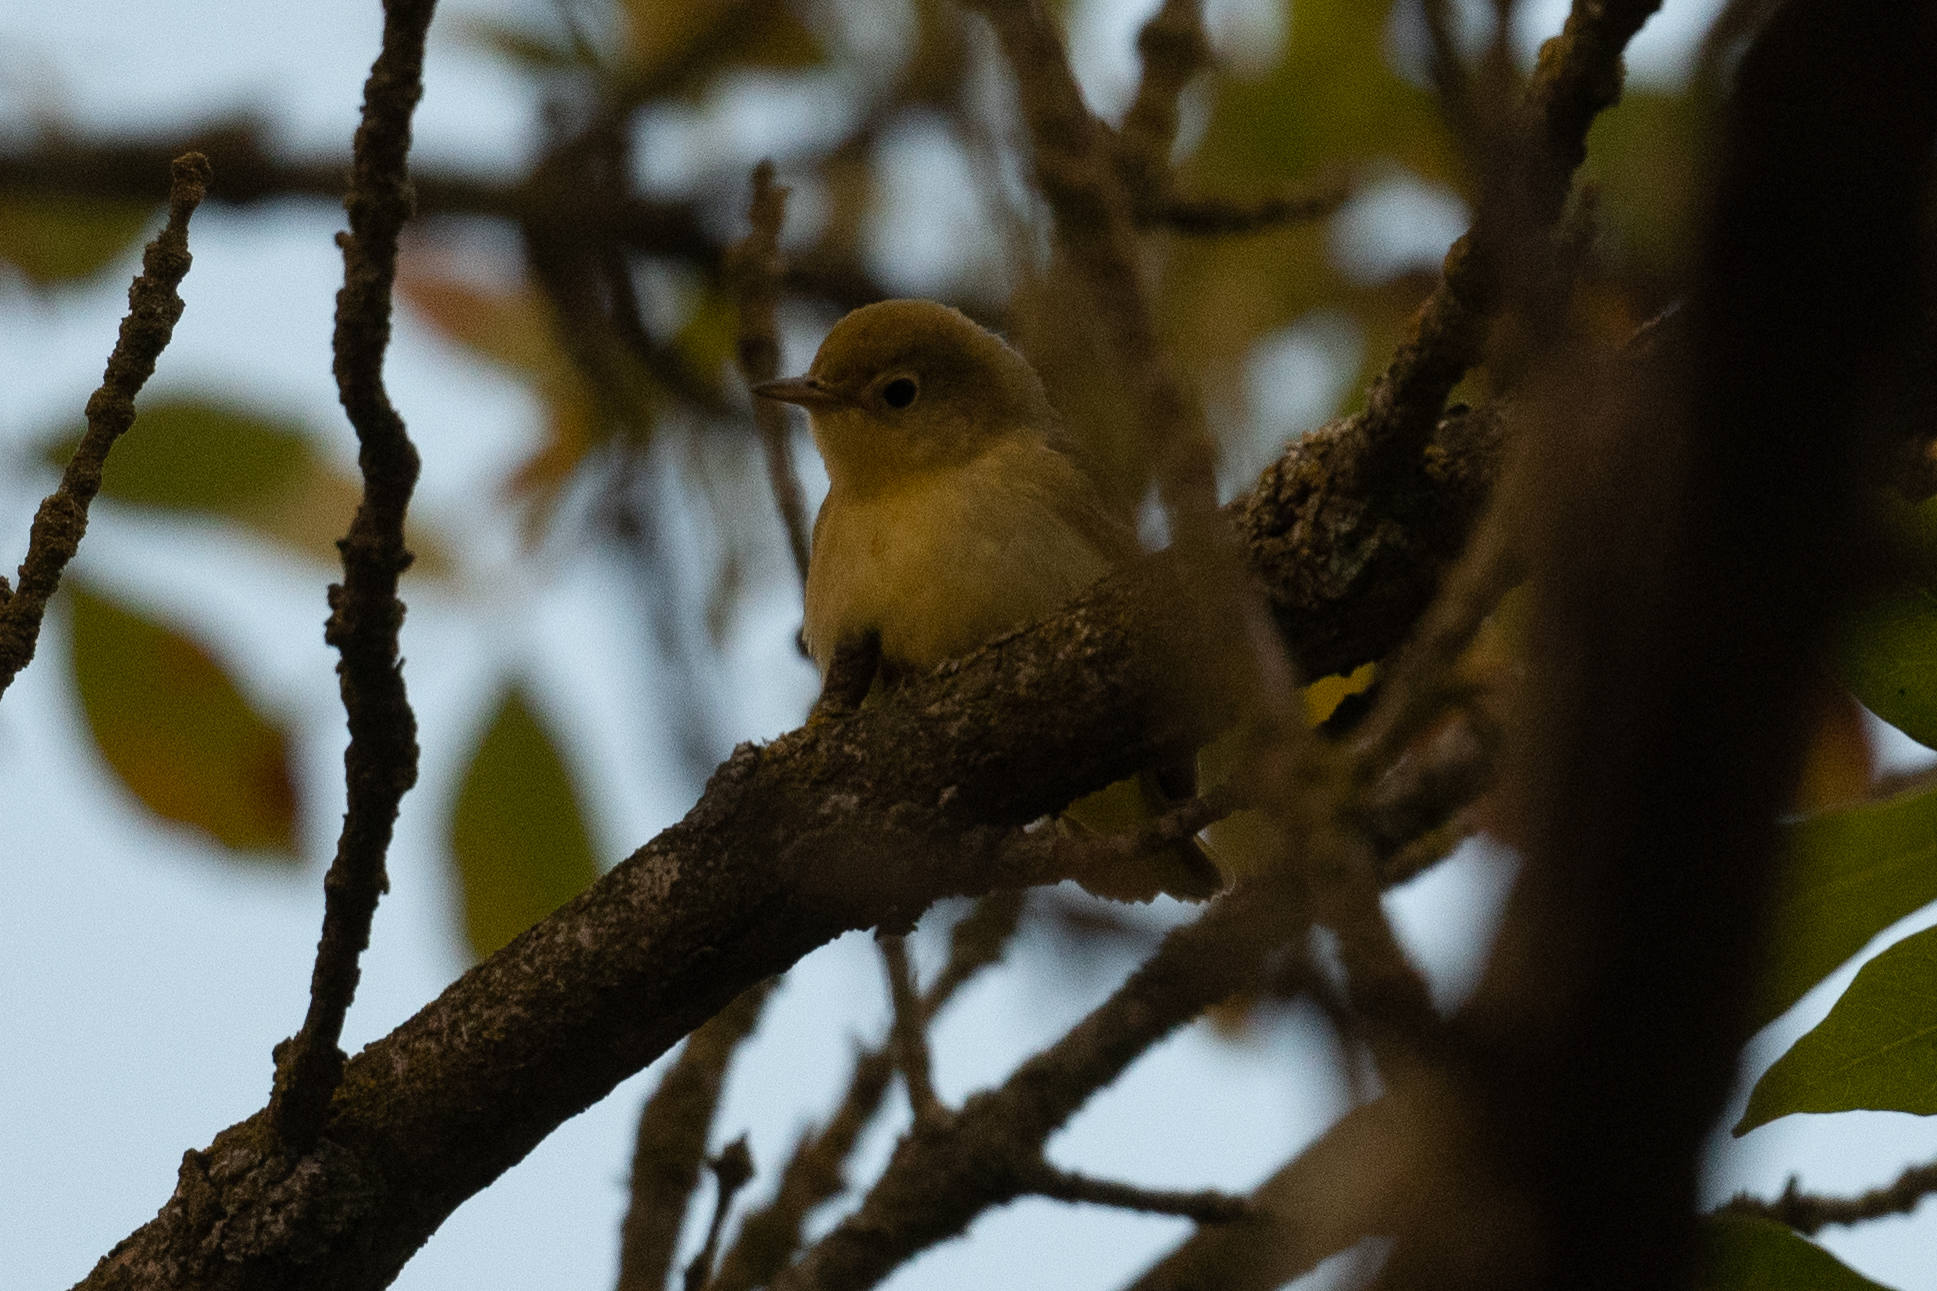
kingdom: Animalia
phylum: Chordata
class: Aves
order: Passeriformes
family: Parulidae
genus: Setophaga
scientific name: Setophaga petechia
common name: Yellow warbler
